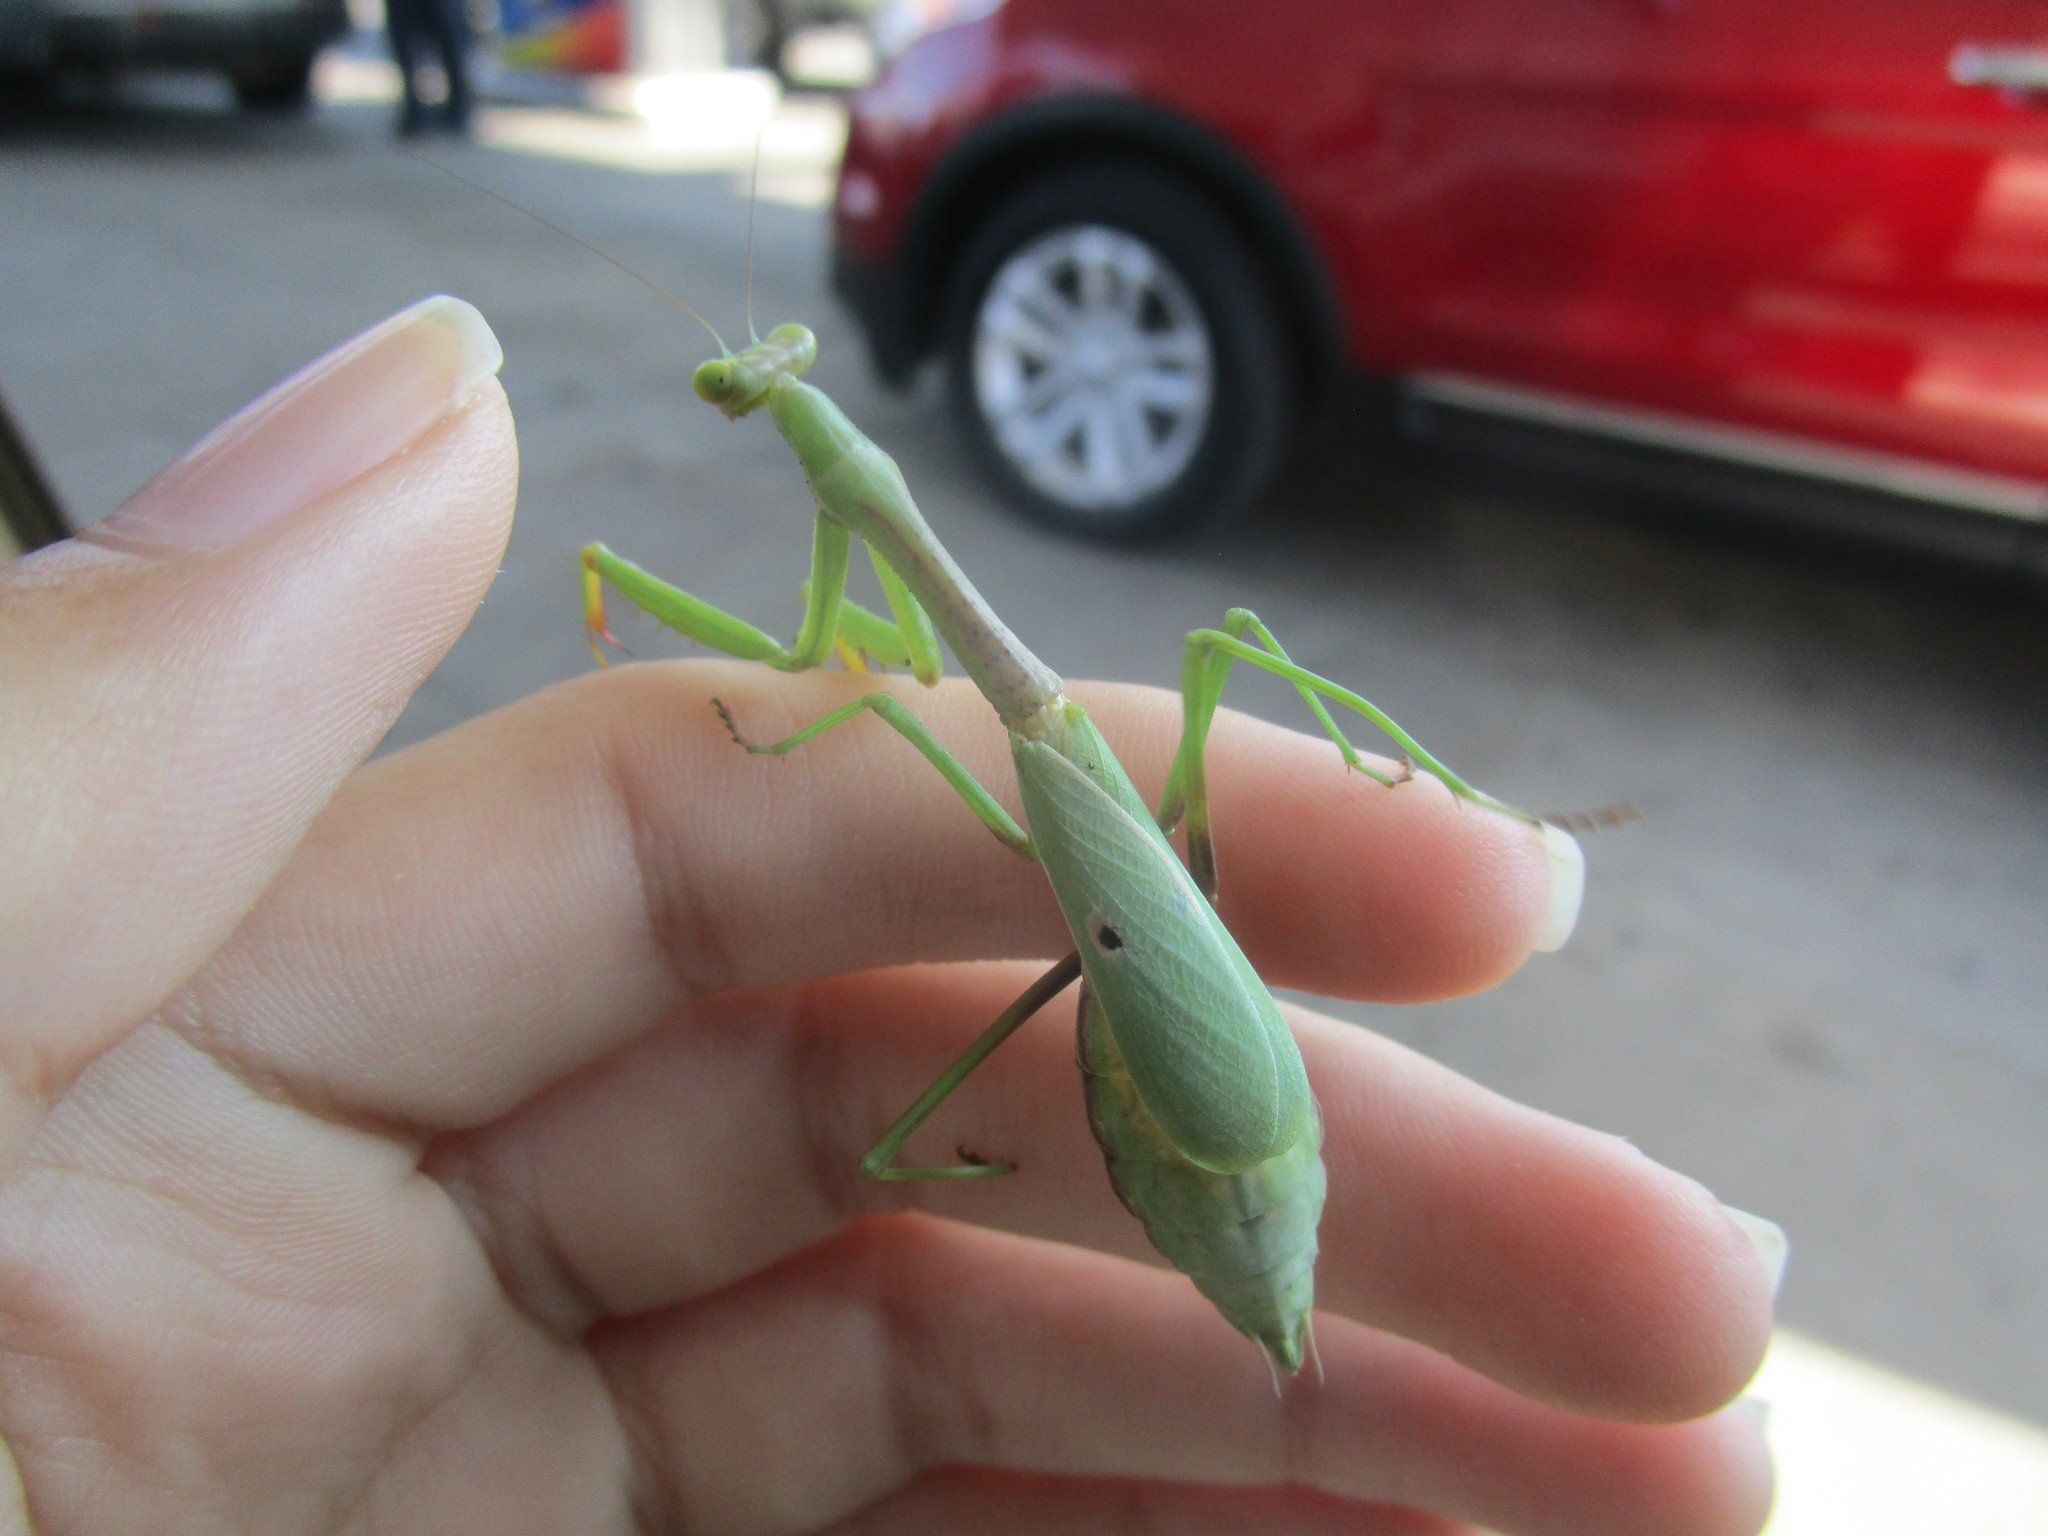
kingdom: Animalia
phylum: Arthropoda
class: Insecta
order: Mantodea
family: Mantidae
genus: Stagmomantis
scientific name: Stagmomantis carolina
